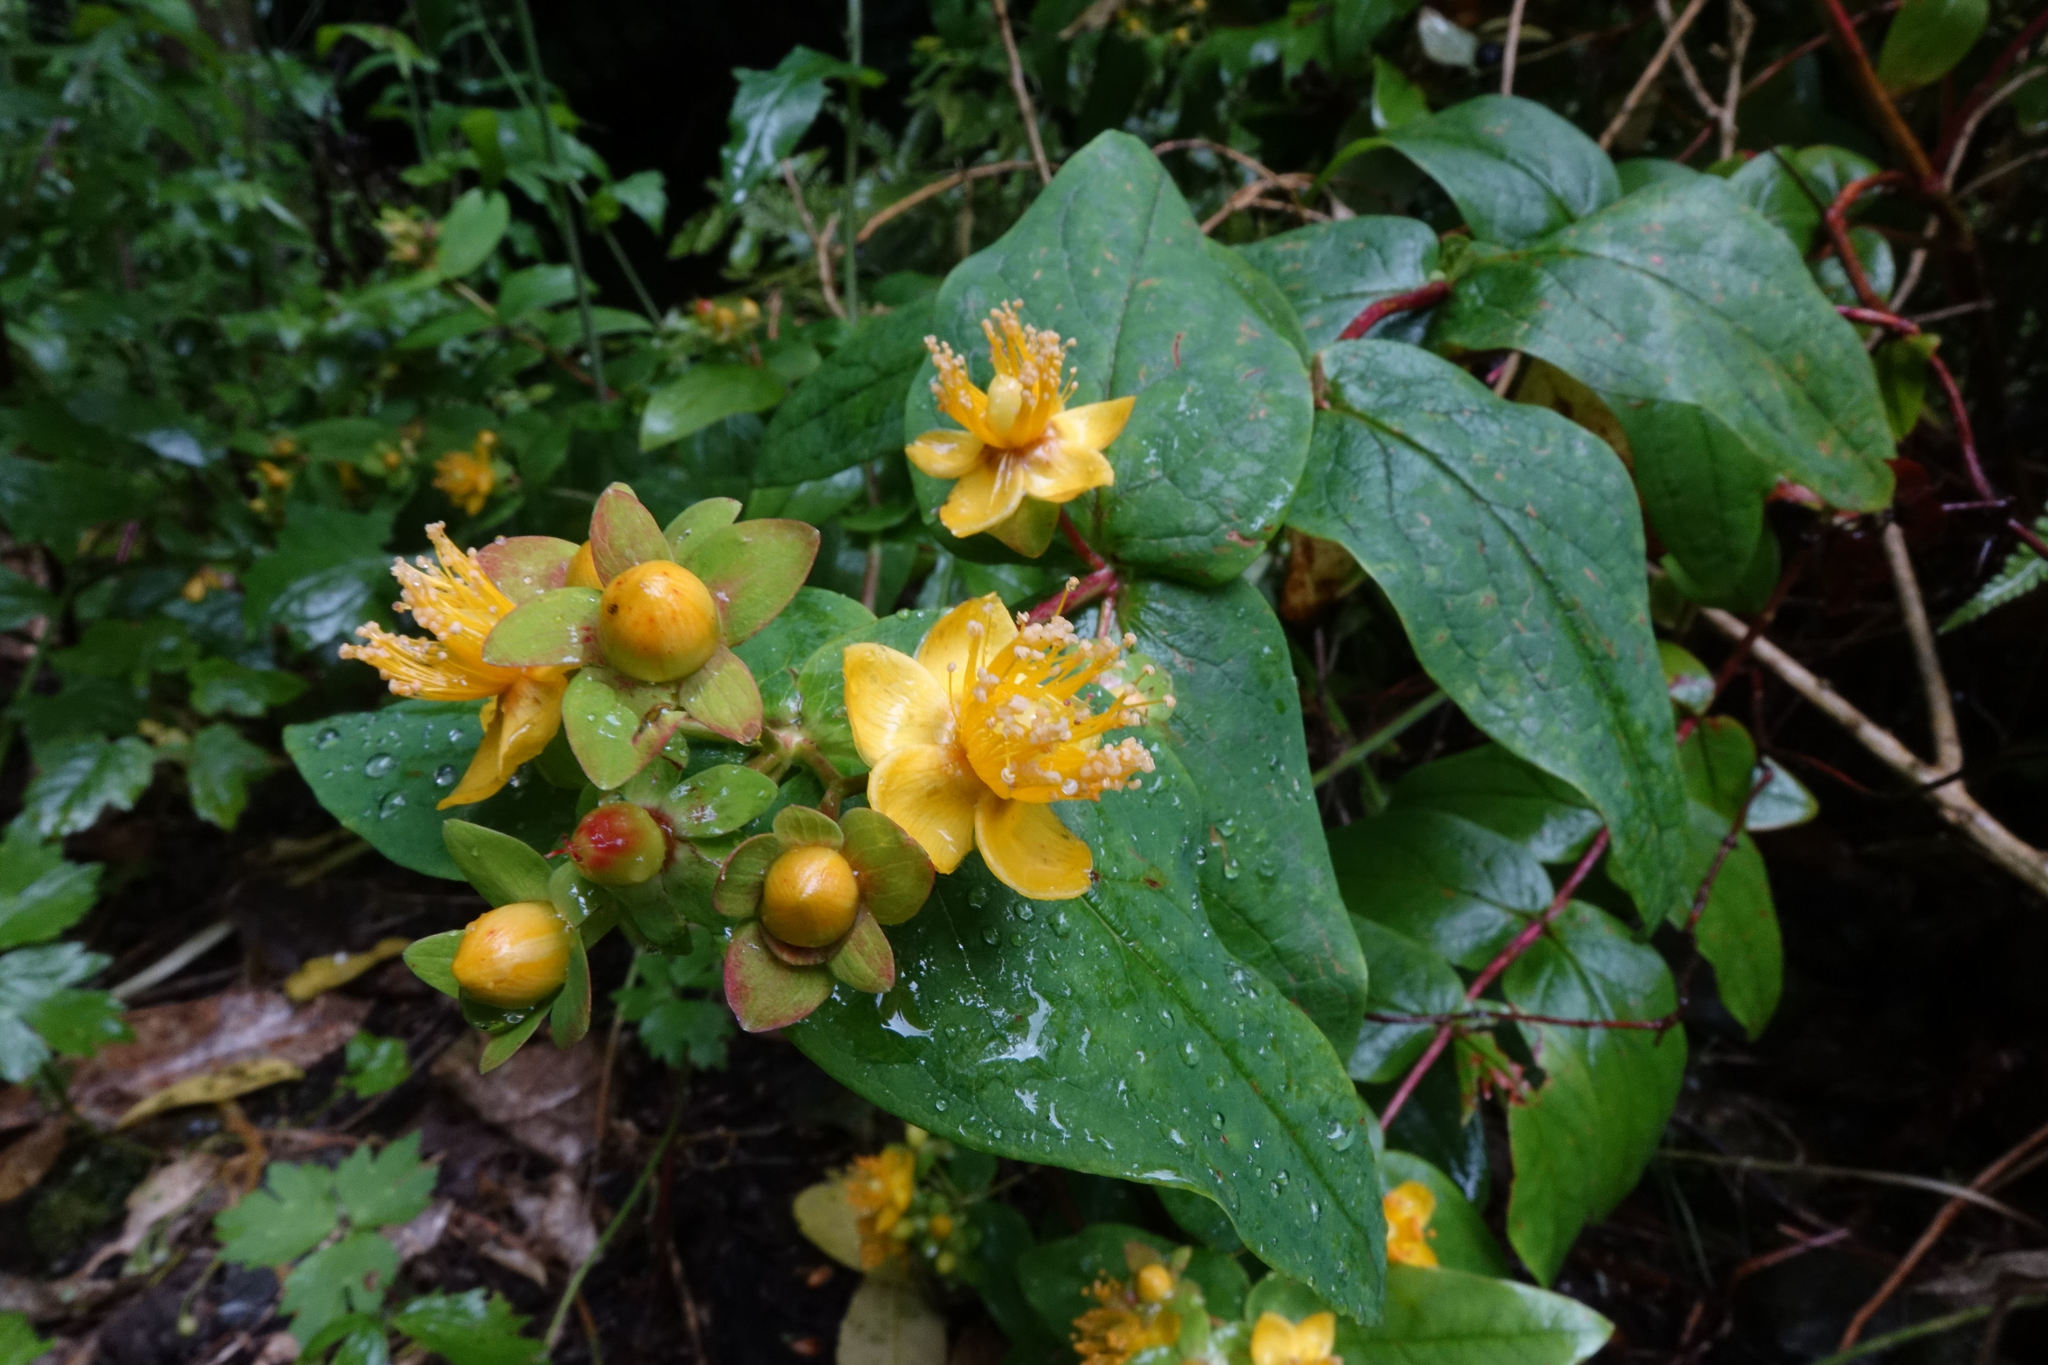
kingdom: Plantae
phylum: Tracheophyta
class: Magnoliopsida
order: Malpighiales
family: Hypericaceae
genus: Hypericum
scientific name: Hypericum androsaemum
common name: Sweet-amber
